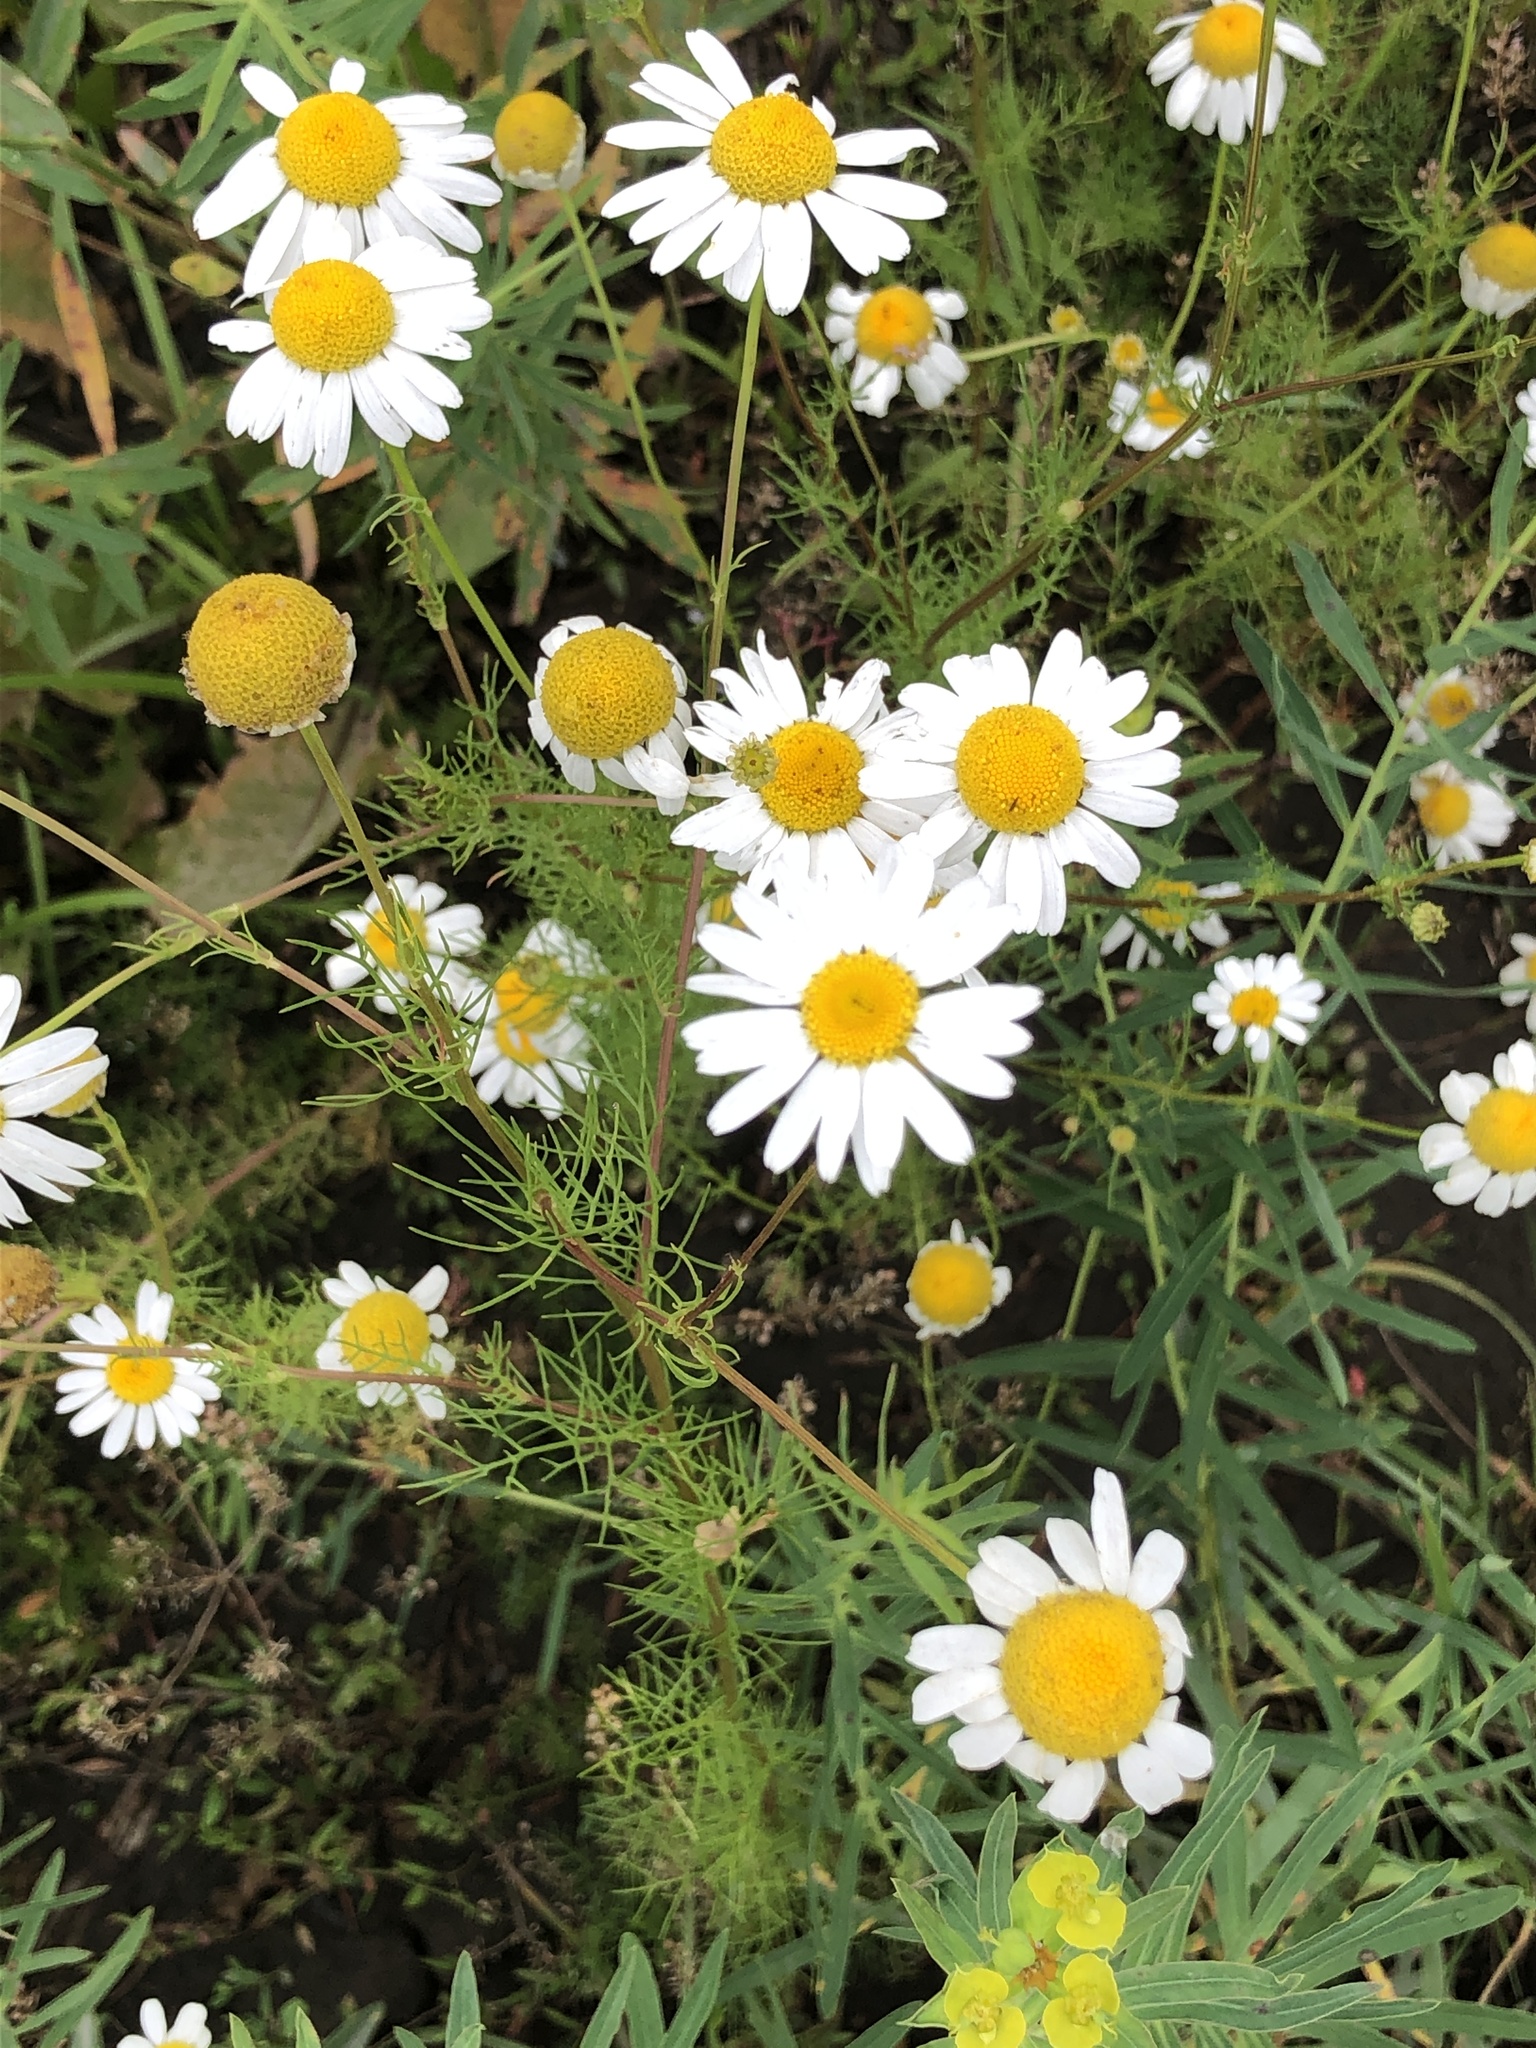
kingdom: Plantae
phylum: Tracheophyta
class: Magnoliopsida
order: Asterales
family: Asteraceae
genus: Tripleurospermum
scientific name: Tripleurospermum inodorum
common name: Scentless mayweed
